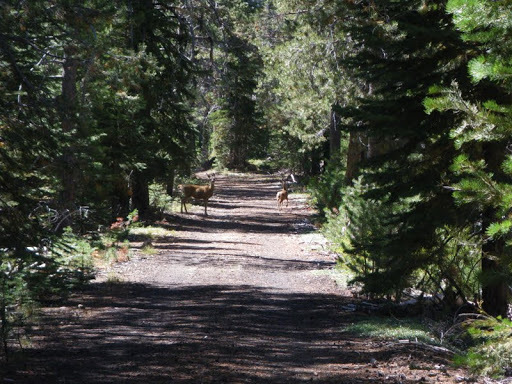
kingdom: Animalia
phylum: Chordata
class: Mammalia
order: Artiodactyla
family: Cervidae
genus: Odocoileus
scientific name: Odocoileus hemionus
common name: Mule deer
